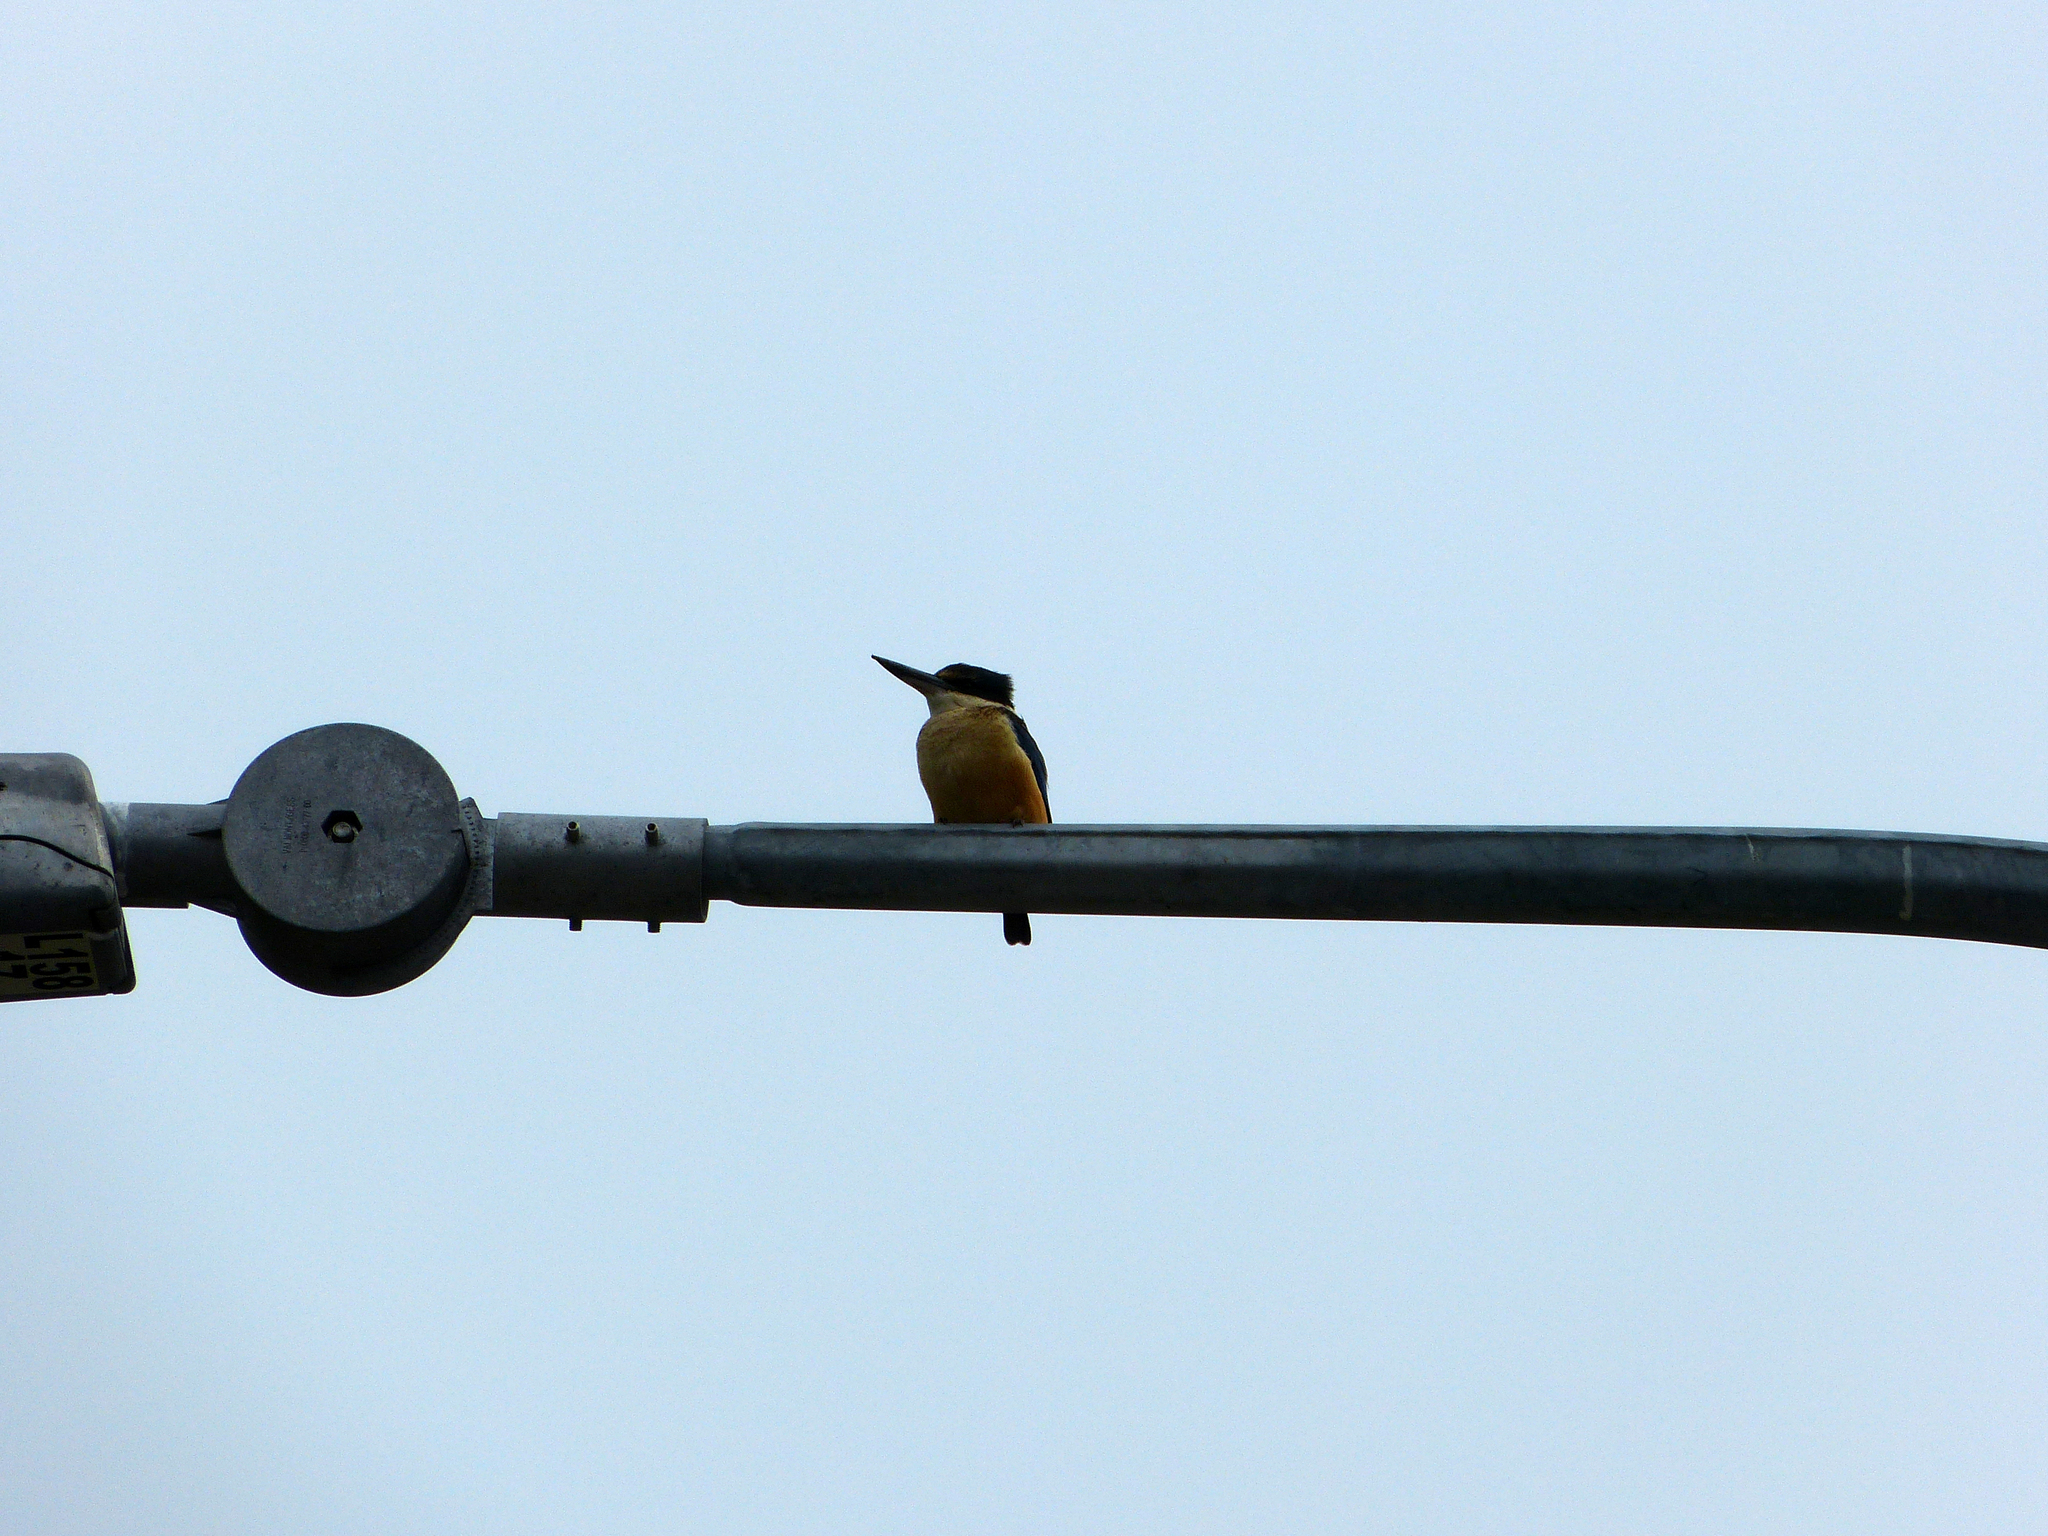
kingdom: Animalia
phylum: Chordata
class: Aves
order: Coraciiformes
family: Alcedinidae
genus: Todiramphus
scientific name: Todiramphus sanctus
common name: Sacred kingfisher
